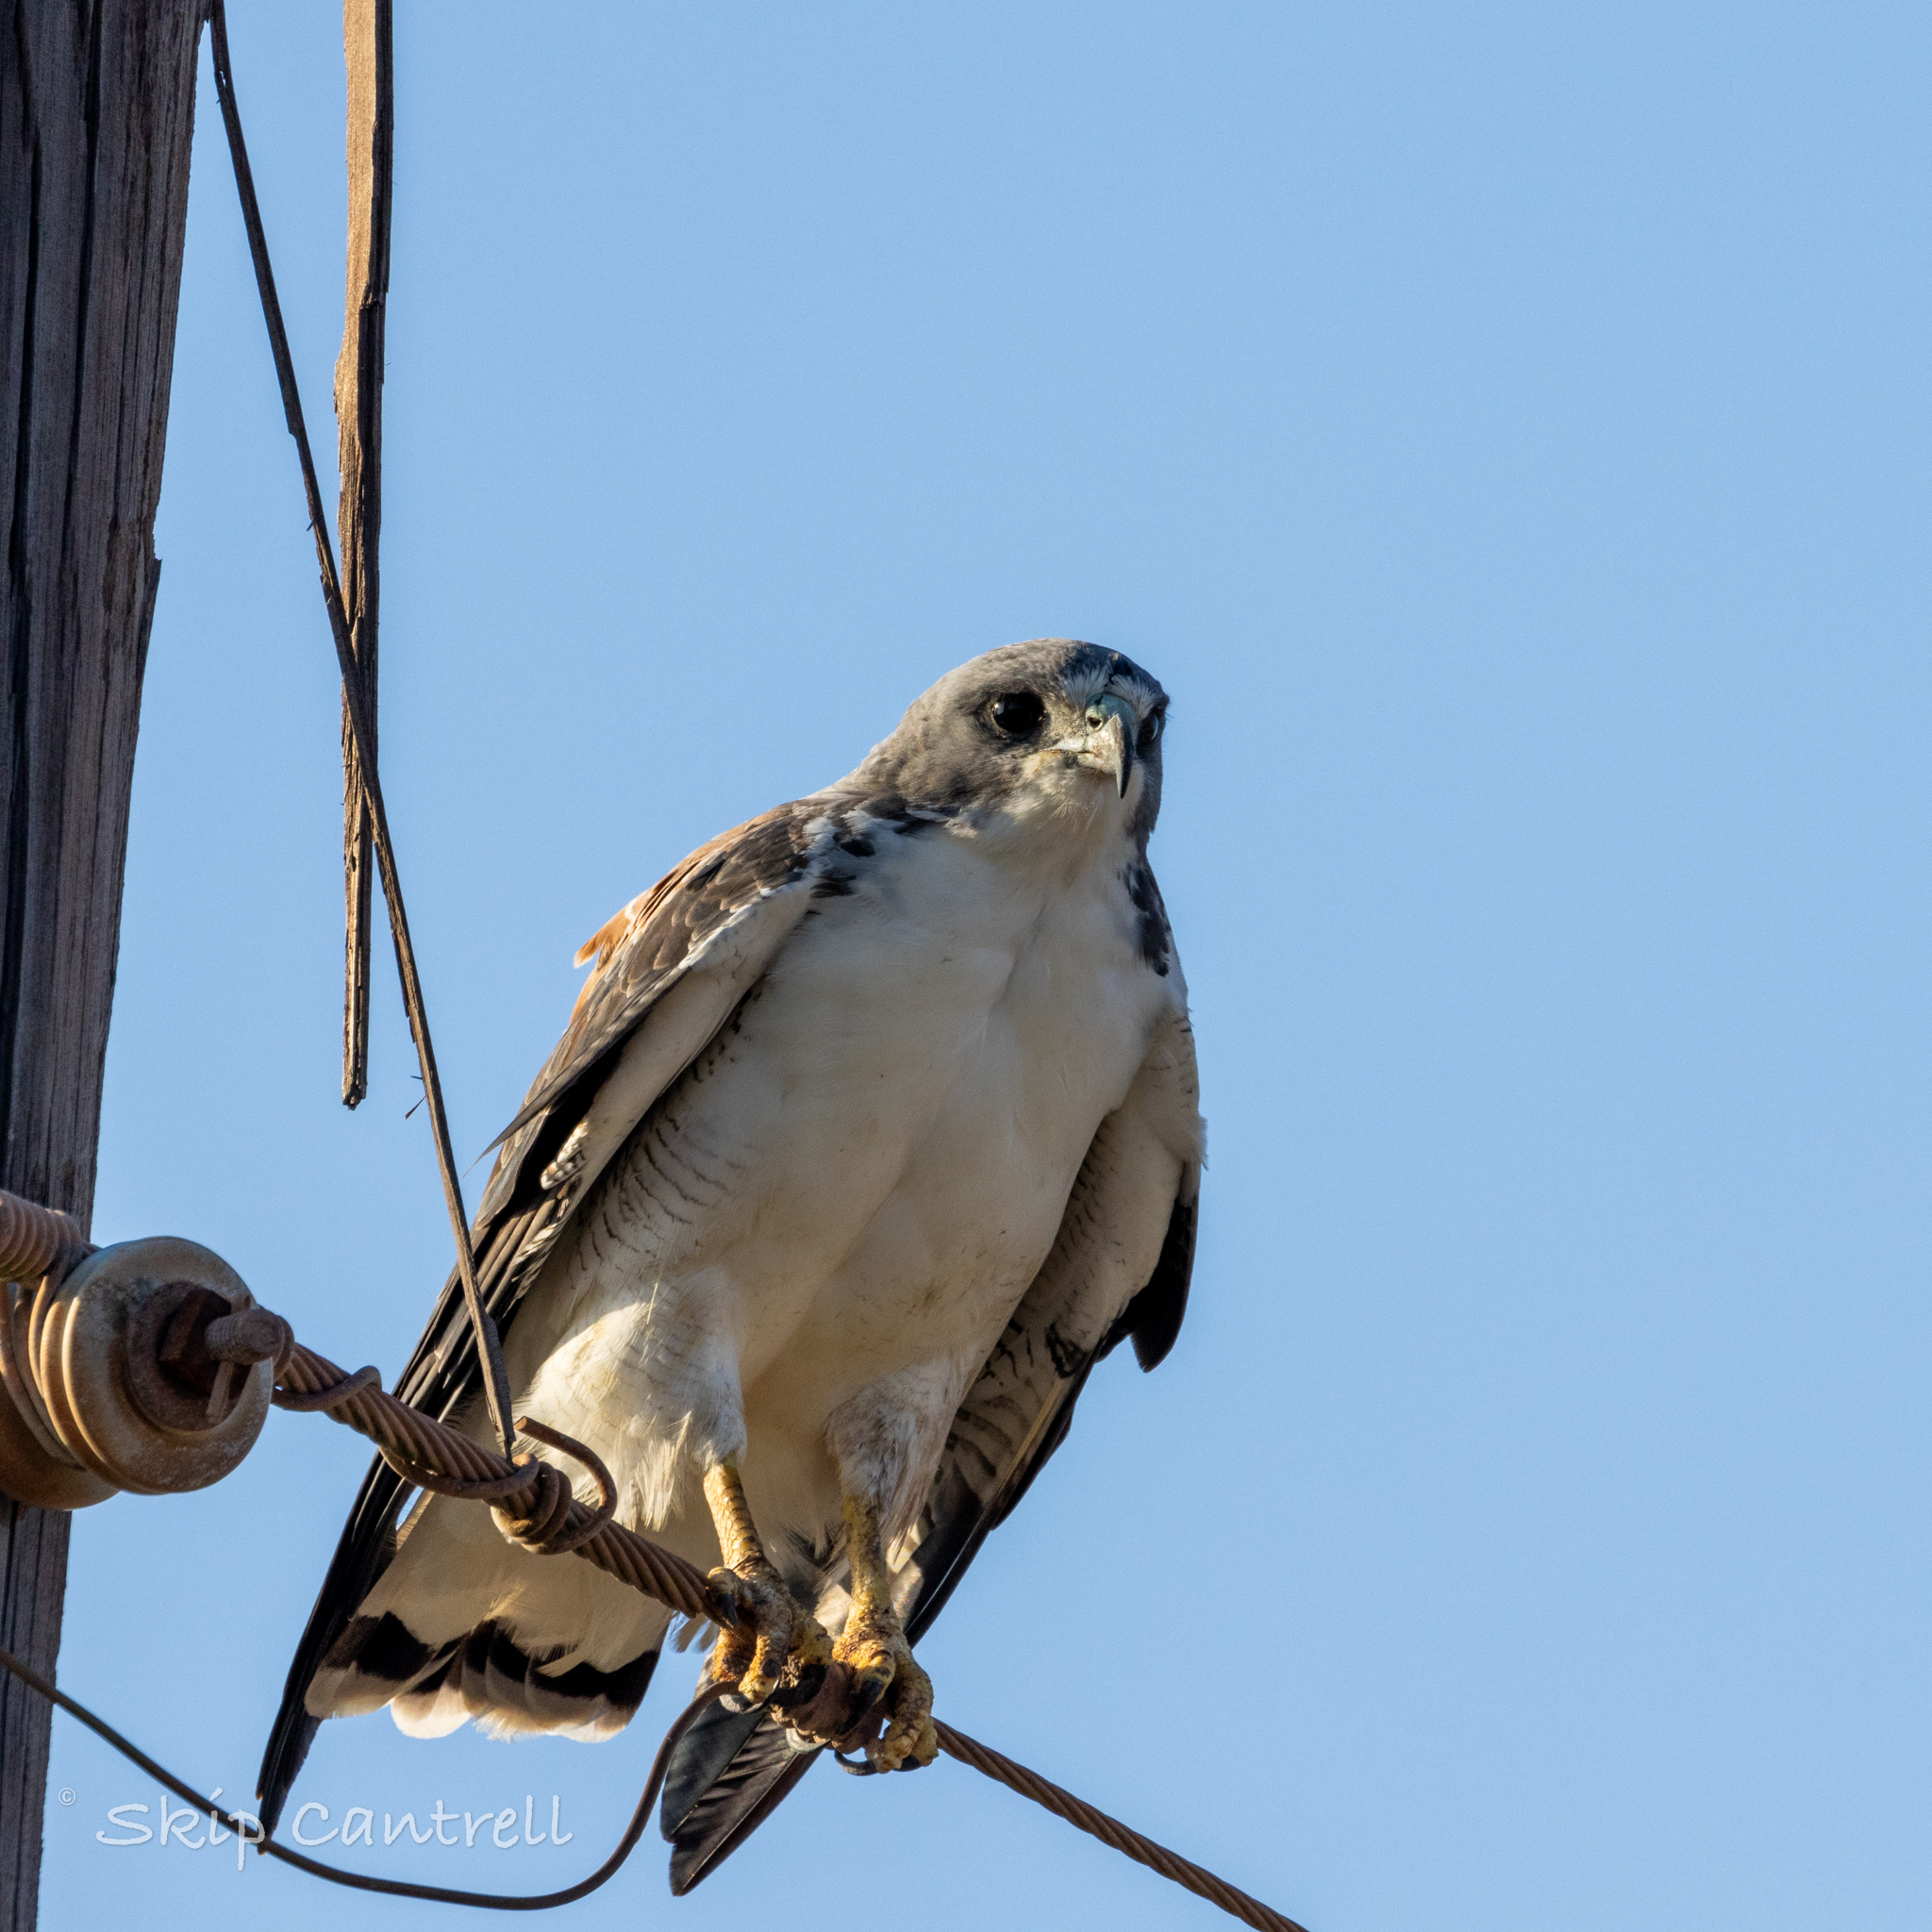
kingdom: Animalia
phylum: Chordata
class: Aves
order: Accipitriformes
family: Accipitridae
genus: Buteo
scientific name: Buteo albicaudatus
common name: White-tailed hawk
